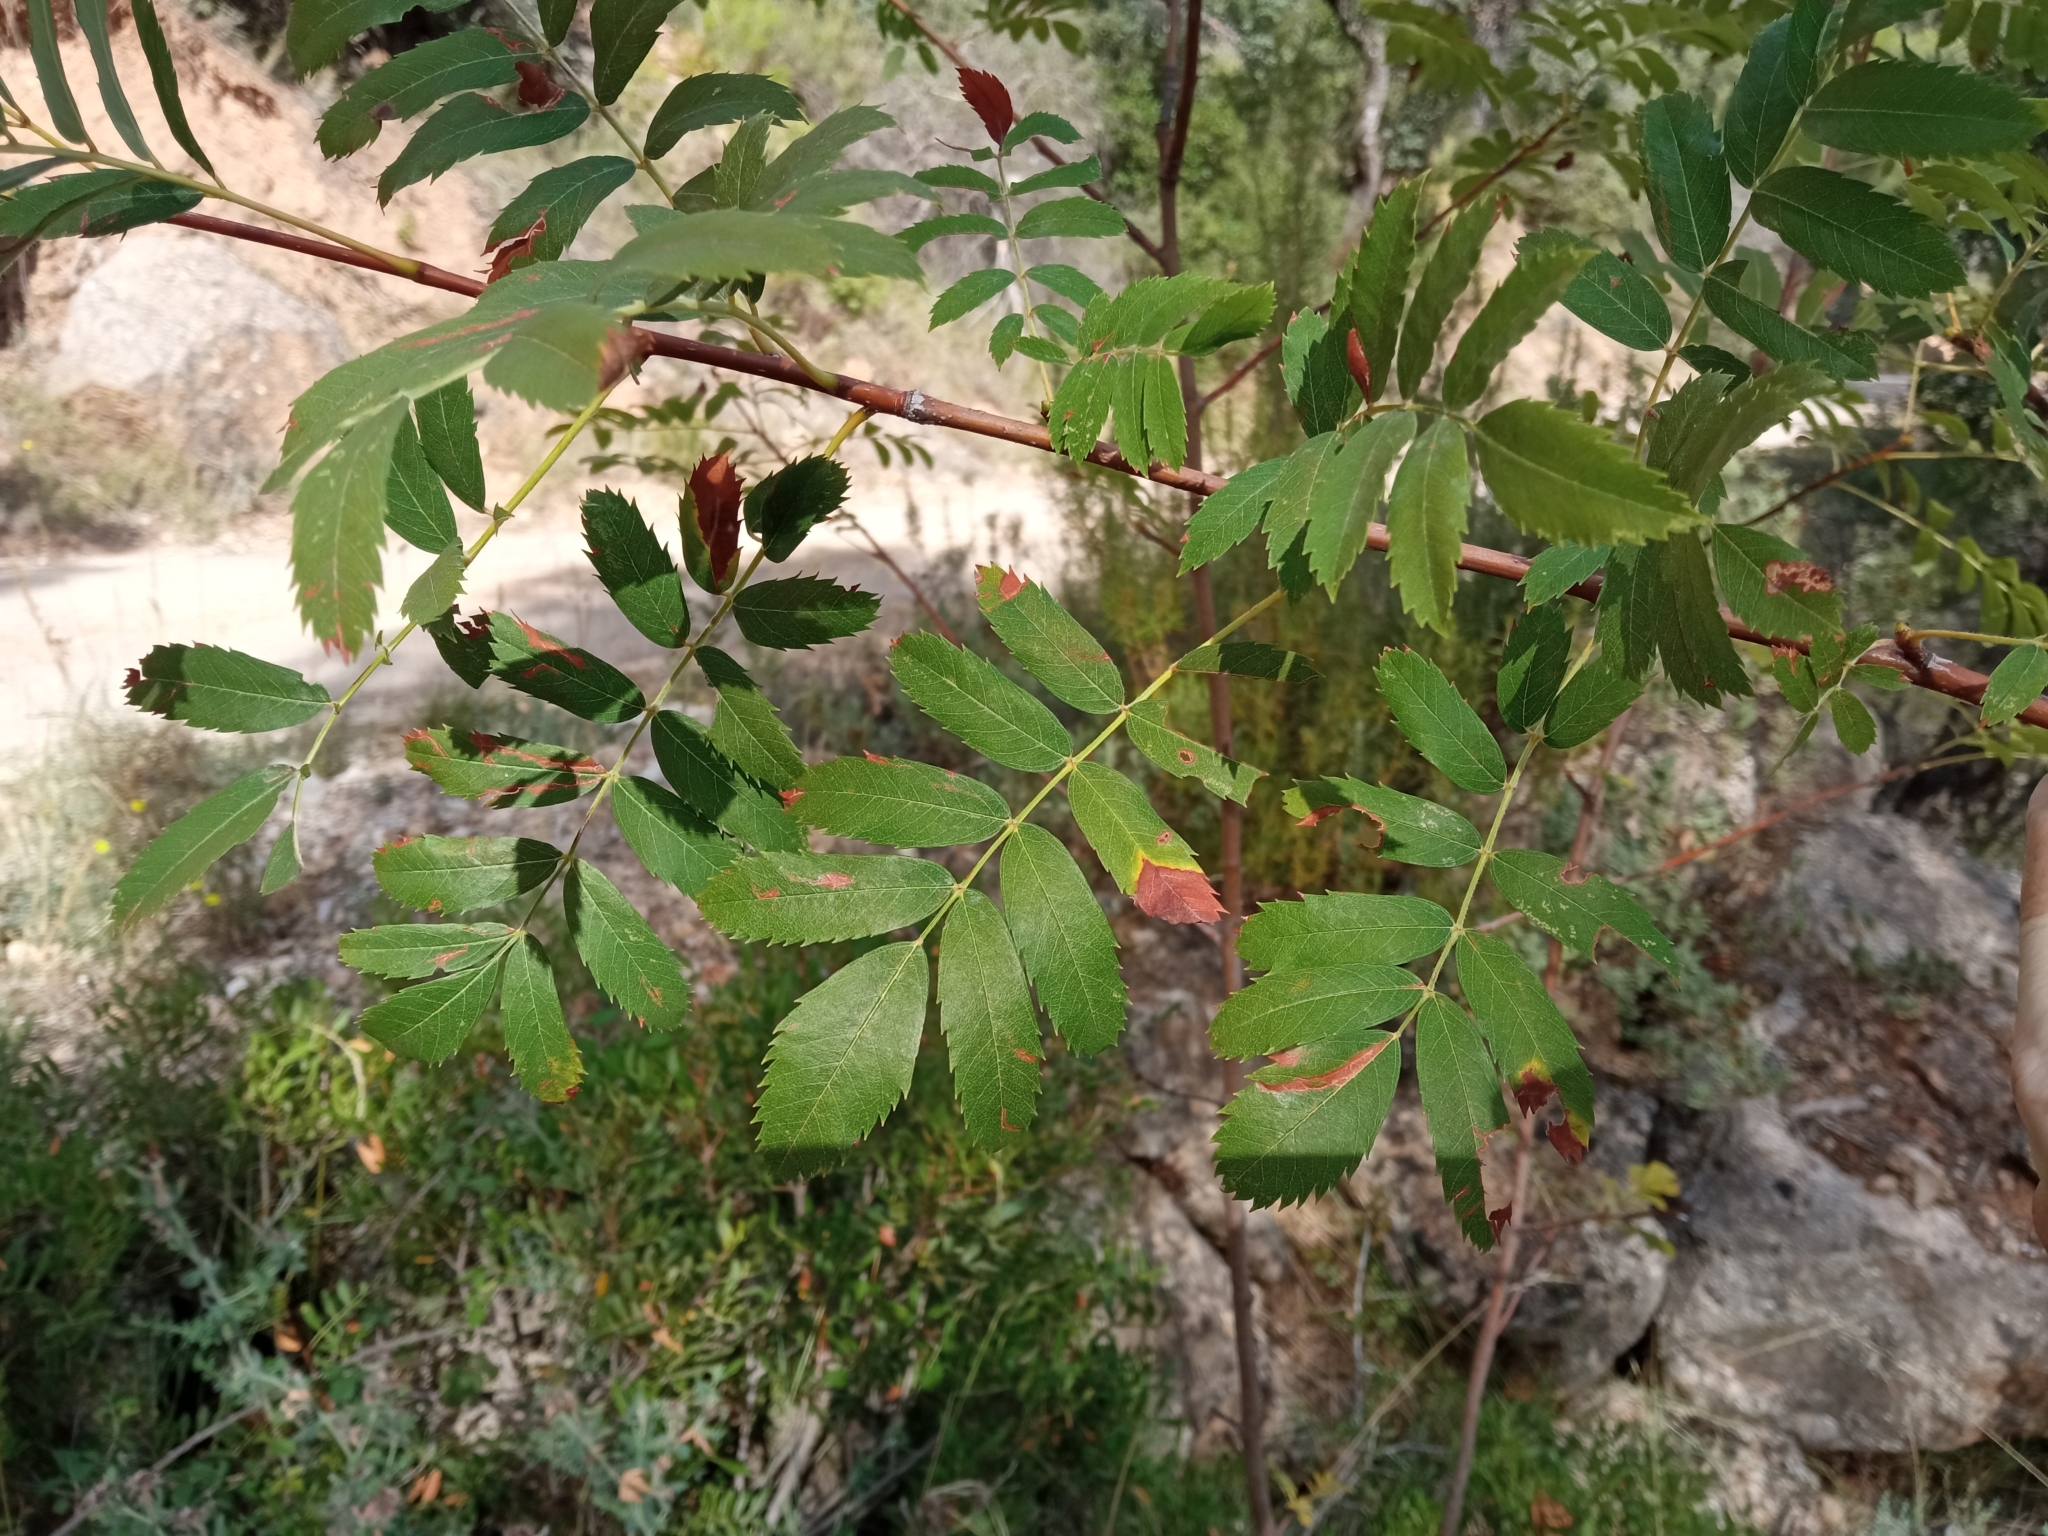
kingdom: Plantae
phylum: Tracheophyta
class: Magnoliopsida
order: Rosales
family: Rosaceae
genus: Cormus
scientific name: Cormus domestica
